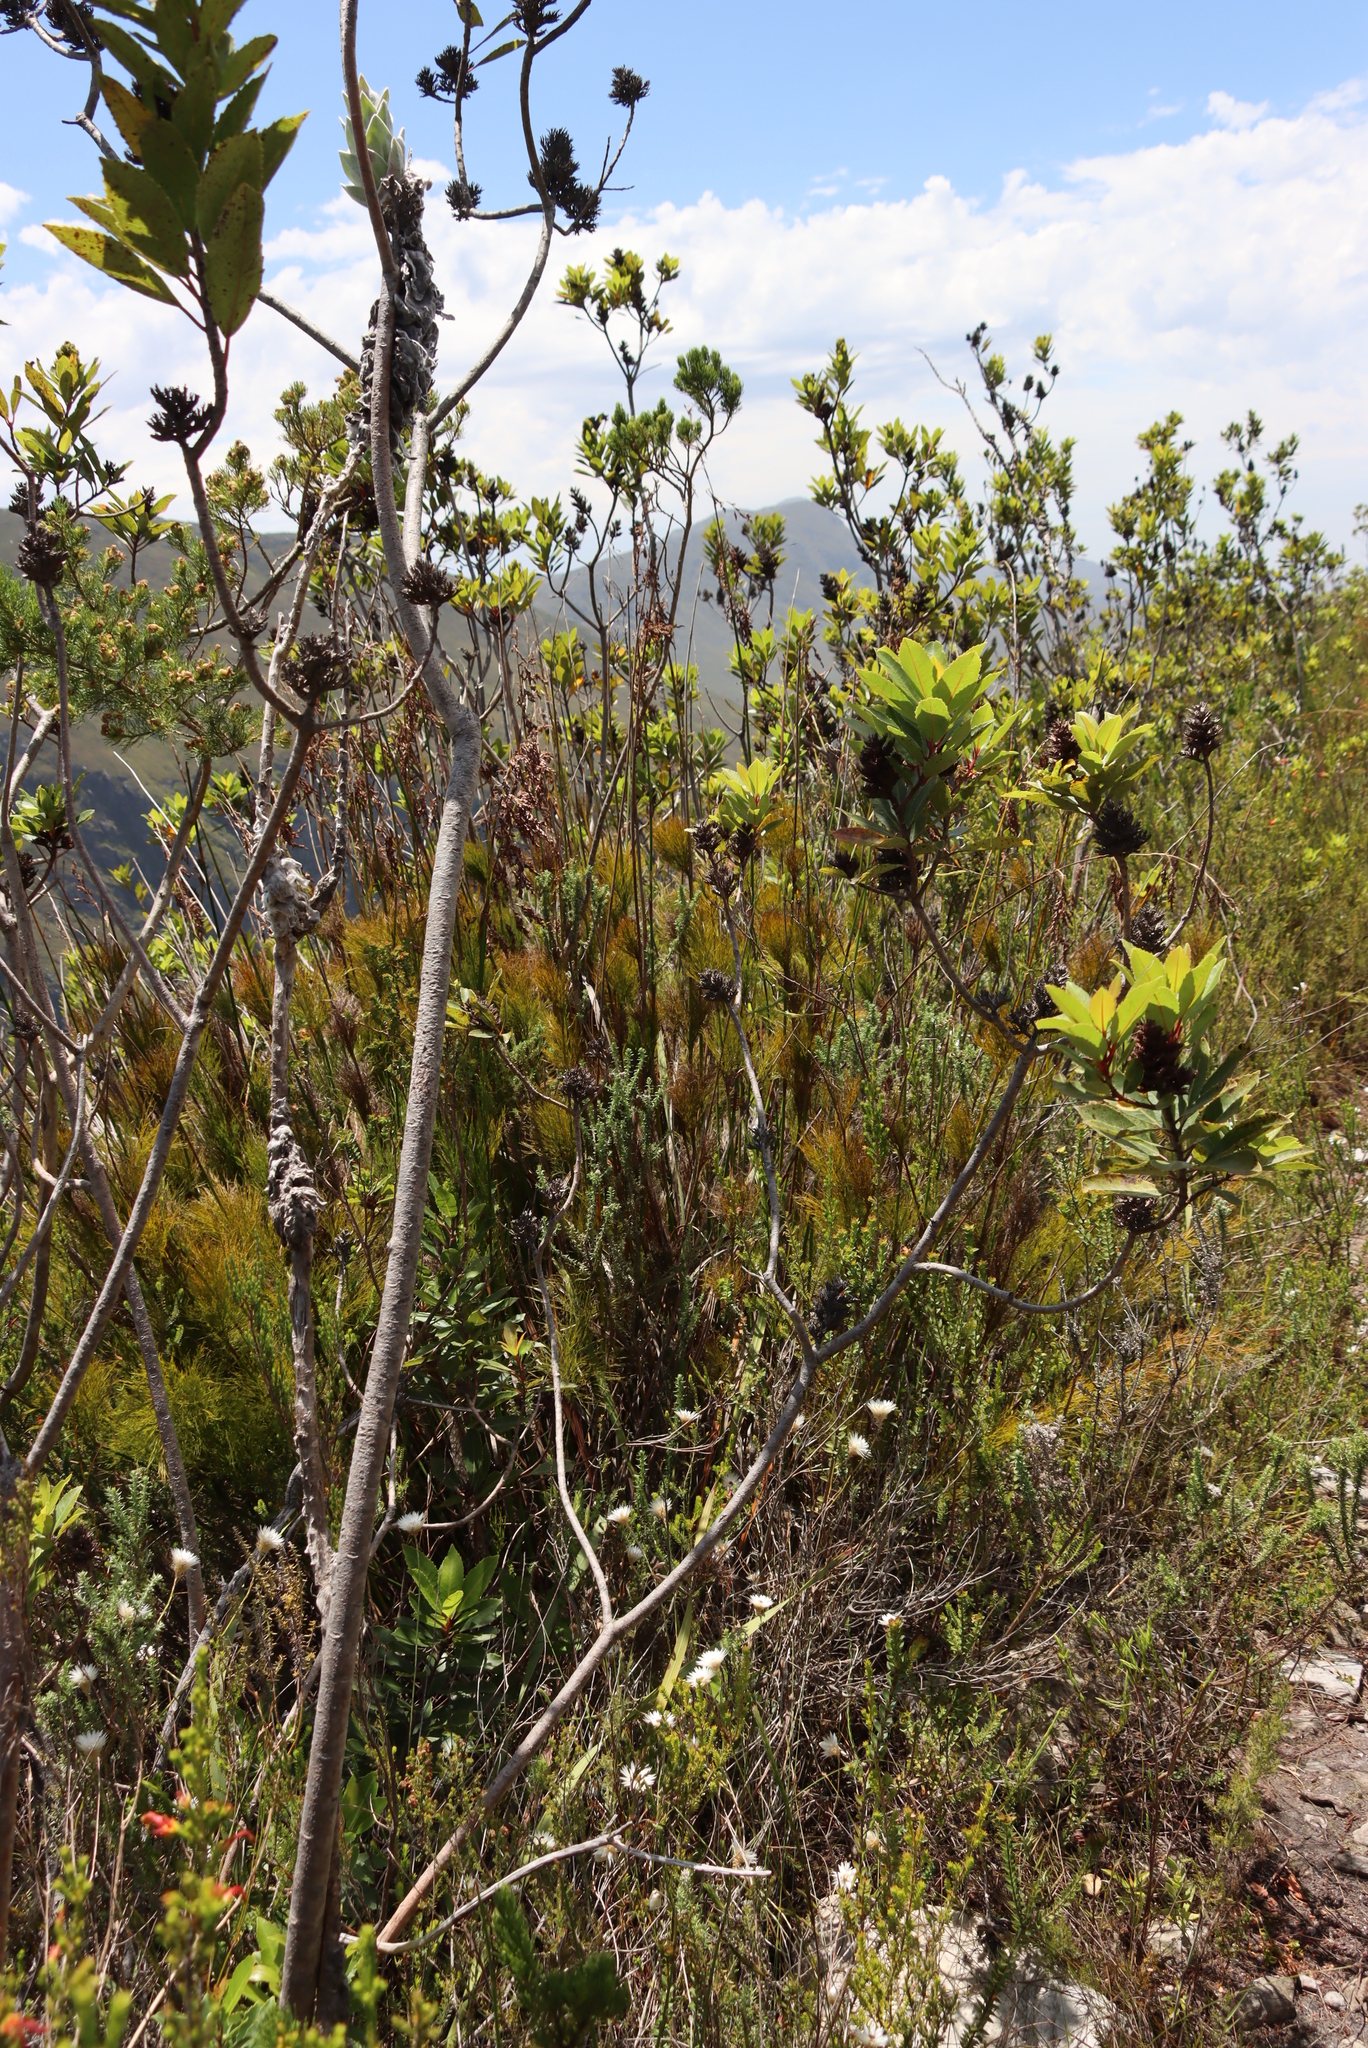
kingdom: Plantae
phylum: Tracheophyta
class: Magnoliopsida
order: Sapindales
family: Anacardiaceae
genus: Laurophyllus
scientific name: Laurophyllus capensis
